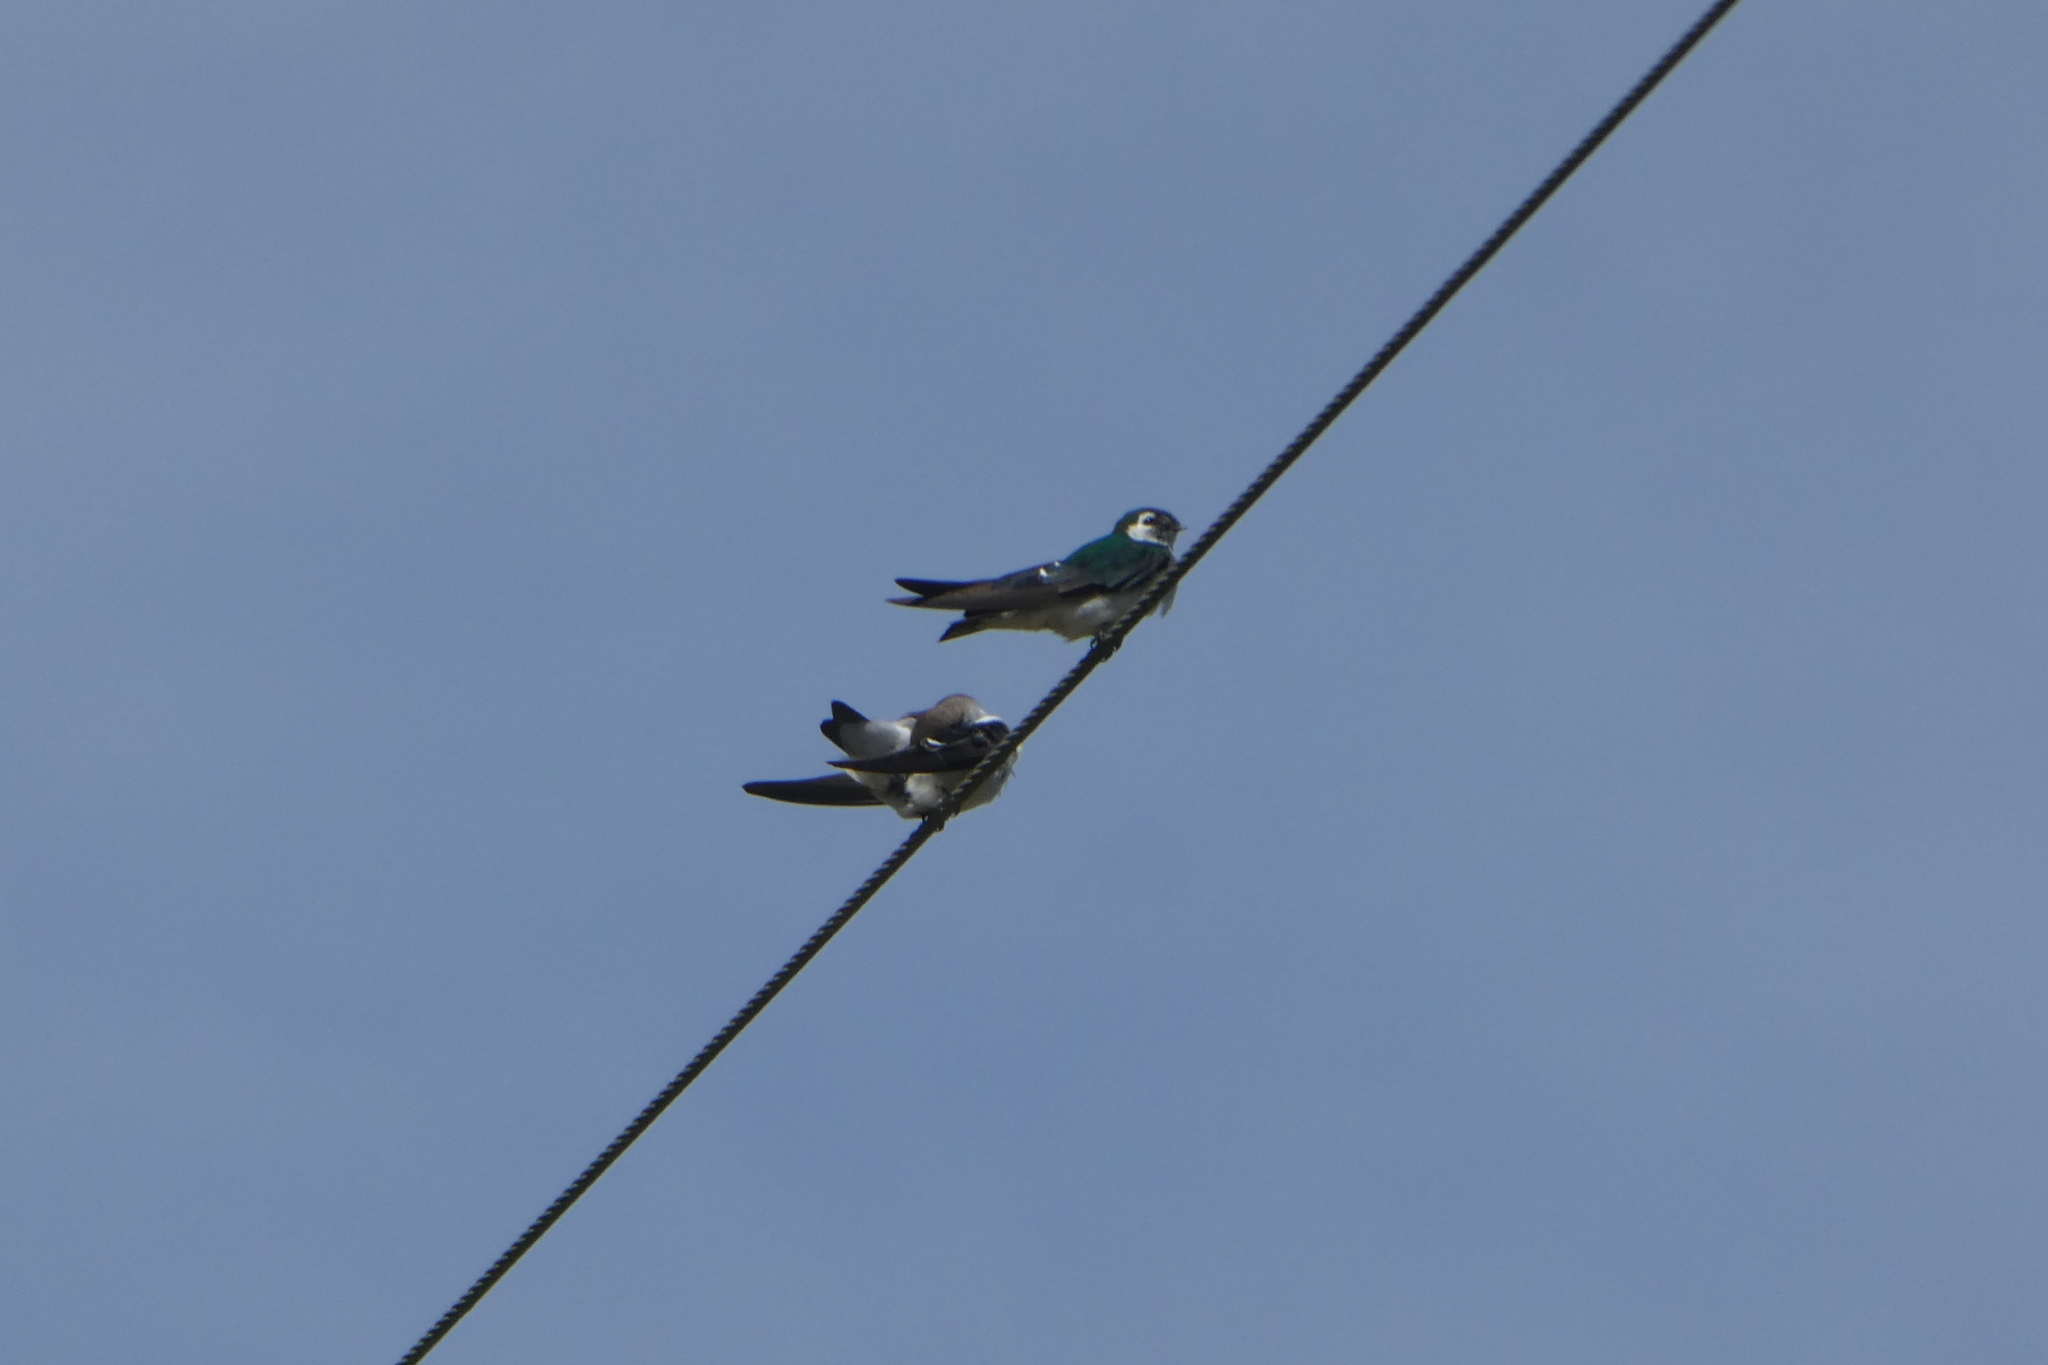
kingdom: Animalia
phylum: Chordata
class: Aves
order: Passeriformes
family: Hirundinidae
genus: Tachycineta
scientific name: Tachycineta thalassina
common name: Violet-green swallow
